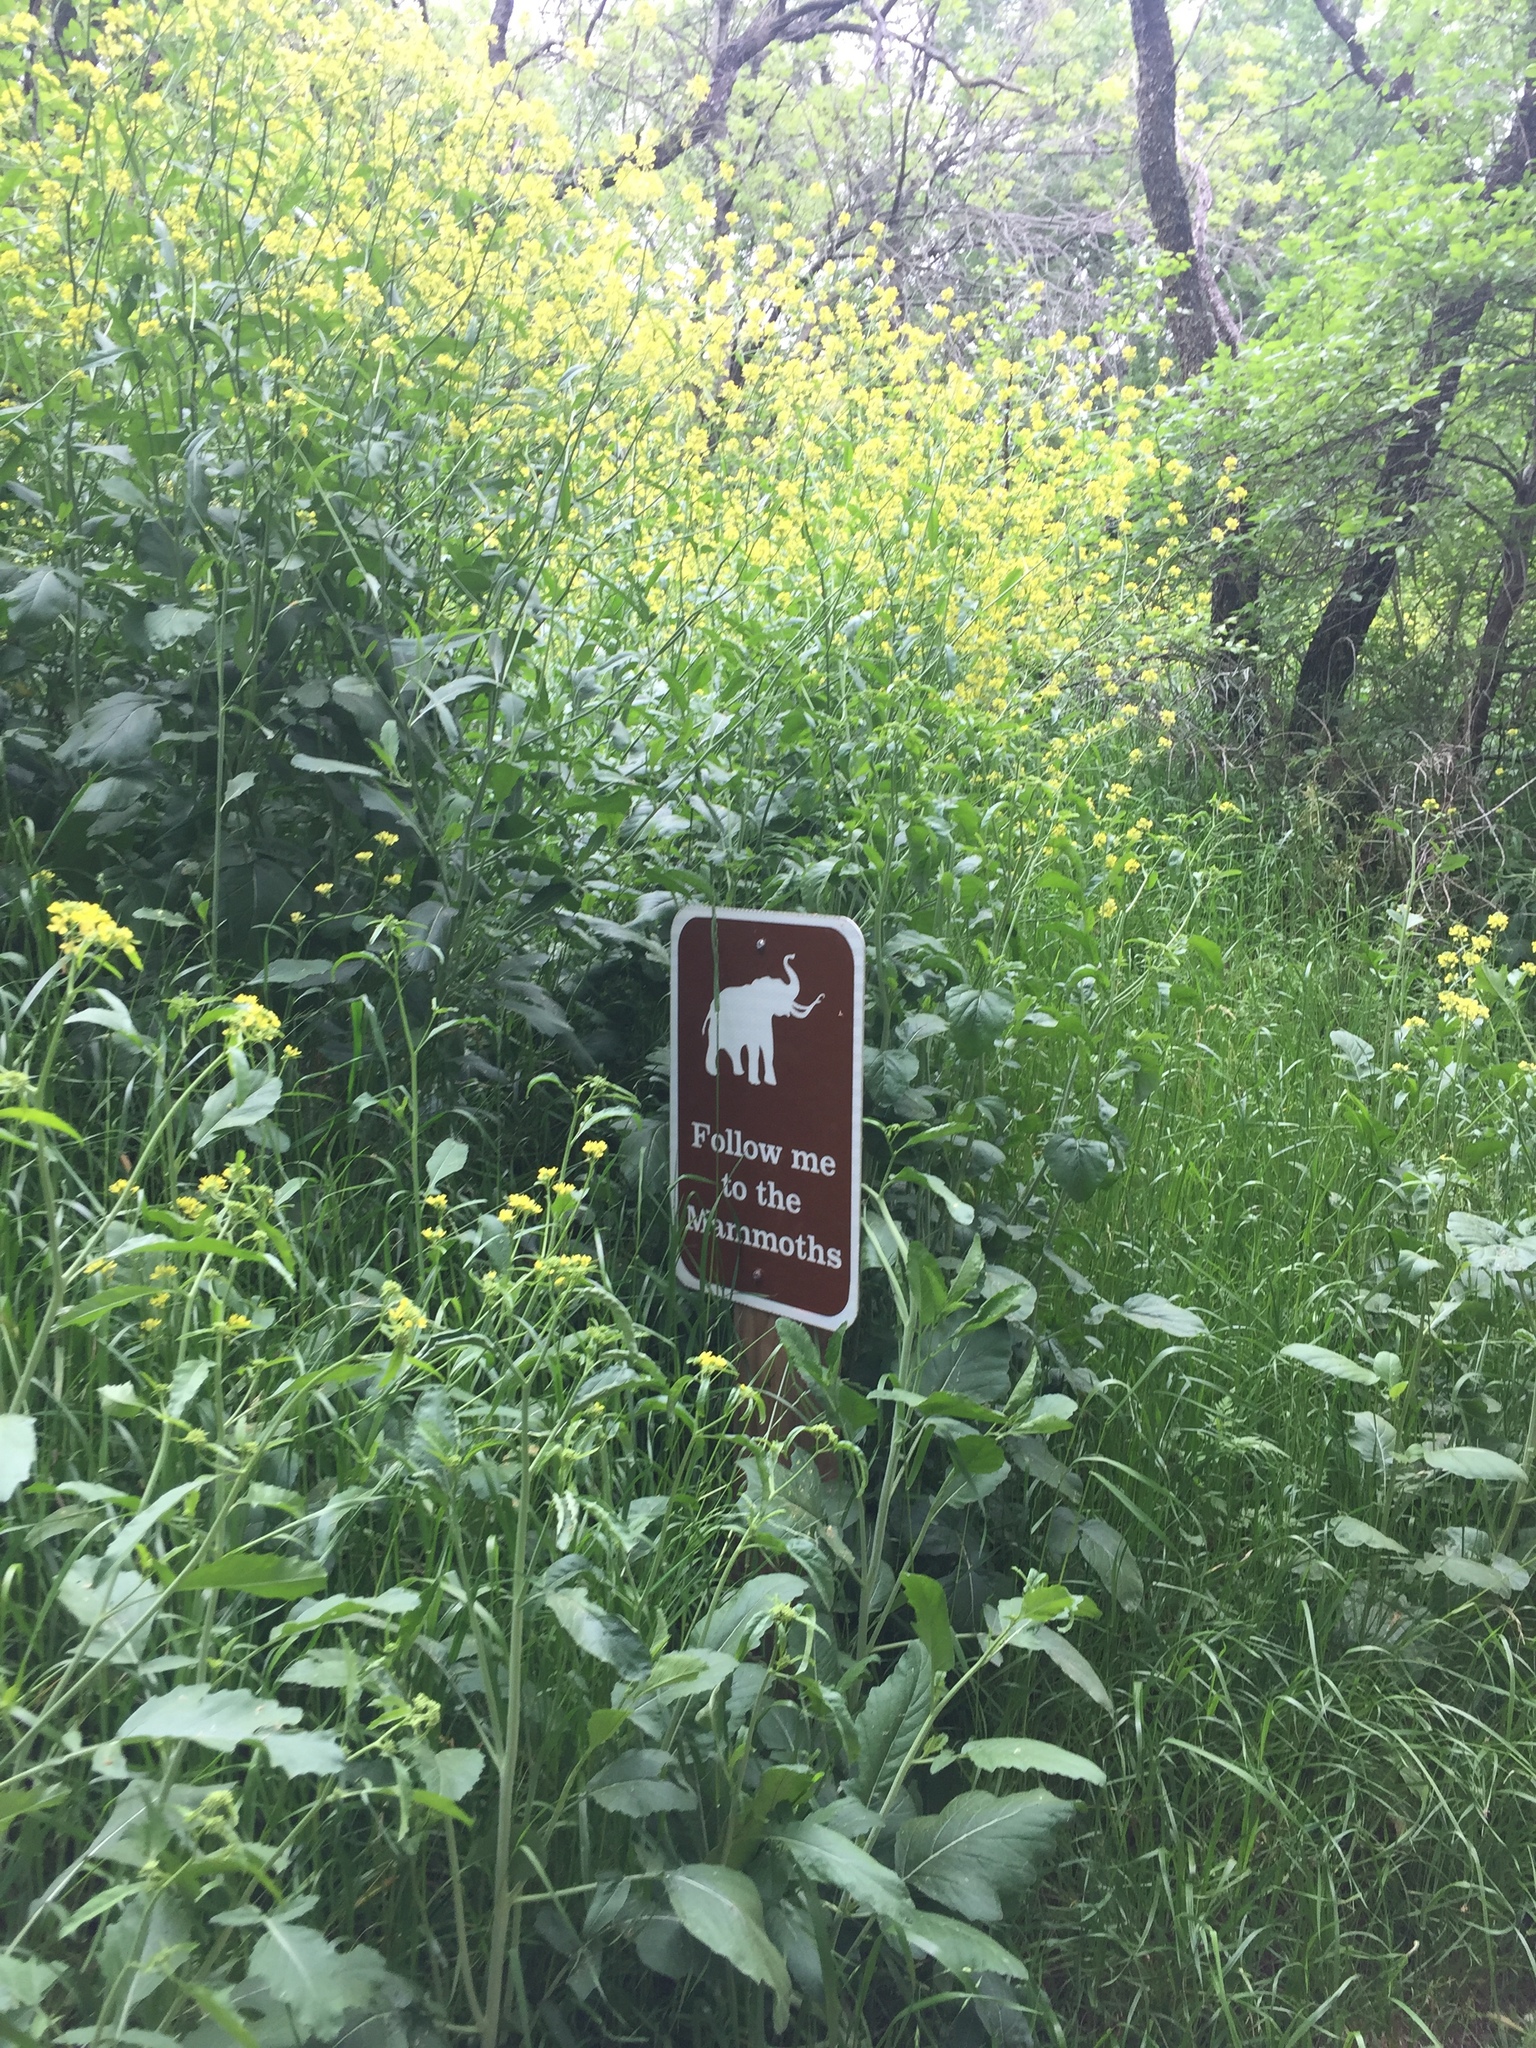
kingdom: Plantae
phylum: Tracheophyta
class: Magnoliopsida
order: Brassicales
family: Brassicaceae
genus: Rapistrum
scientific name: Rapistrum rugosum
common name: Annual bastardcabbage
